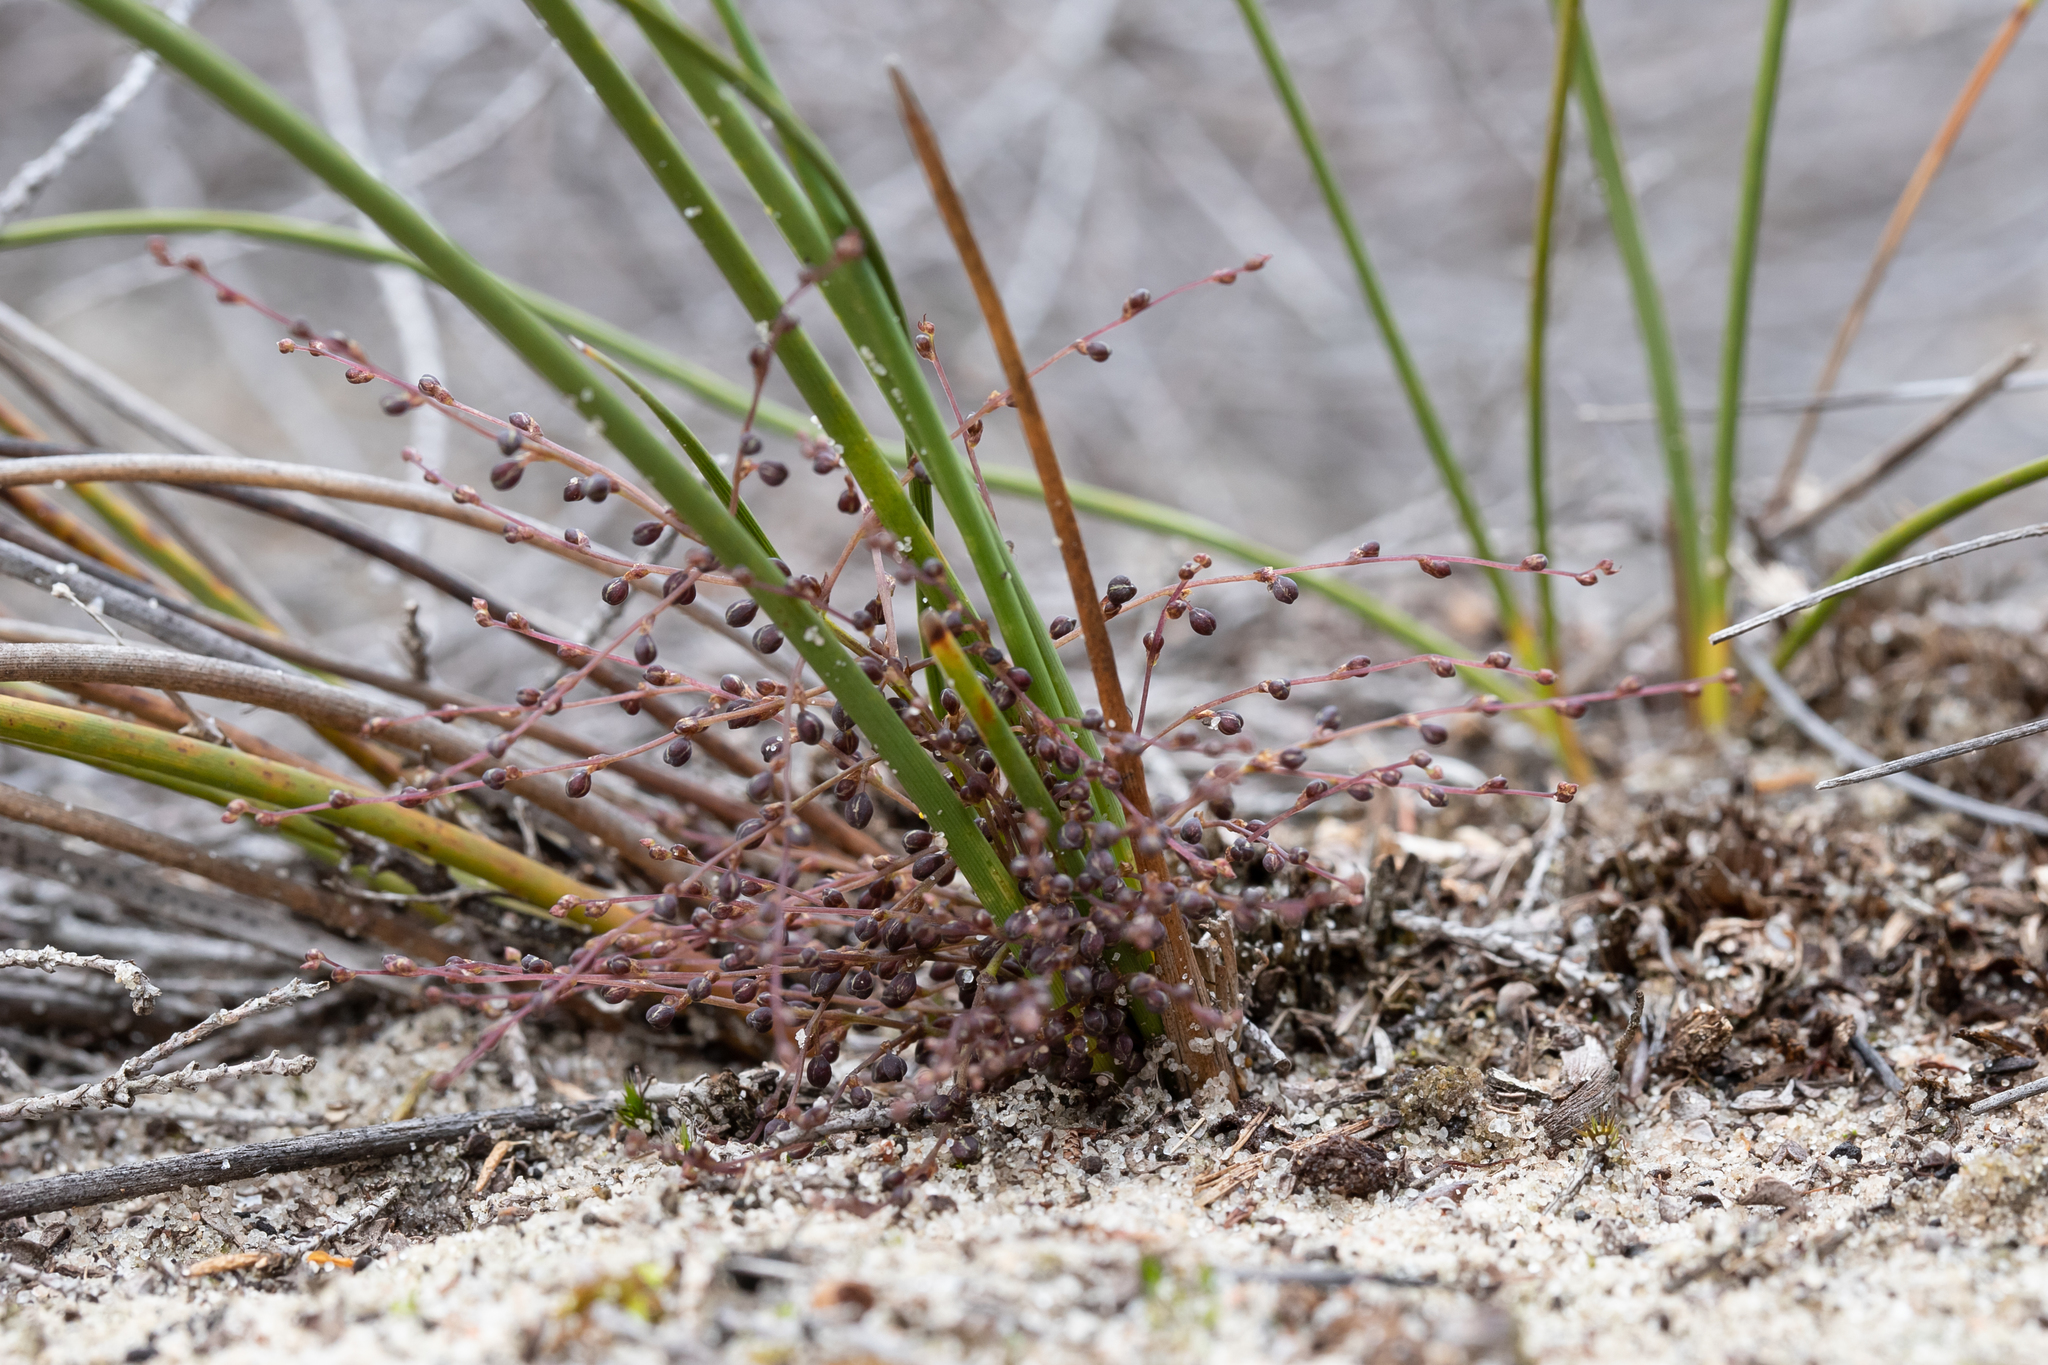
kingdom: Plantae
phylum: Tracheophyta
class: Liliopsida
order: Asparagales
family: Asparagaceae
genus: Lomandra
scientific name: Lomandra micrantha
